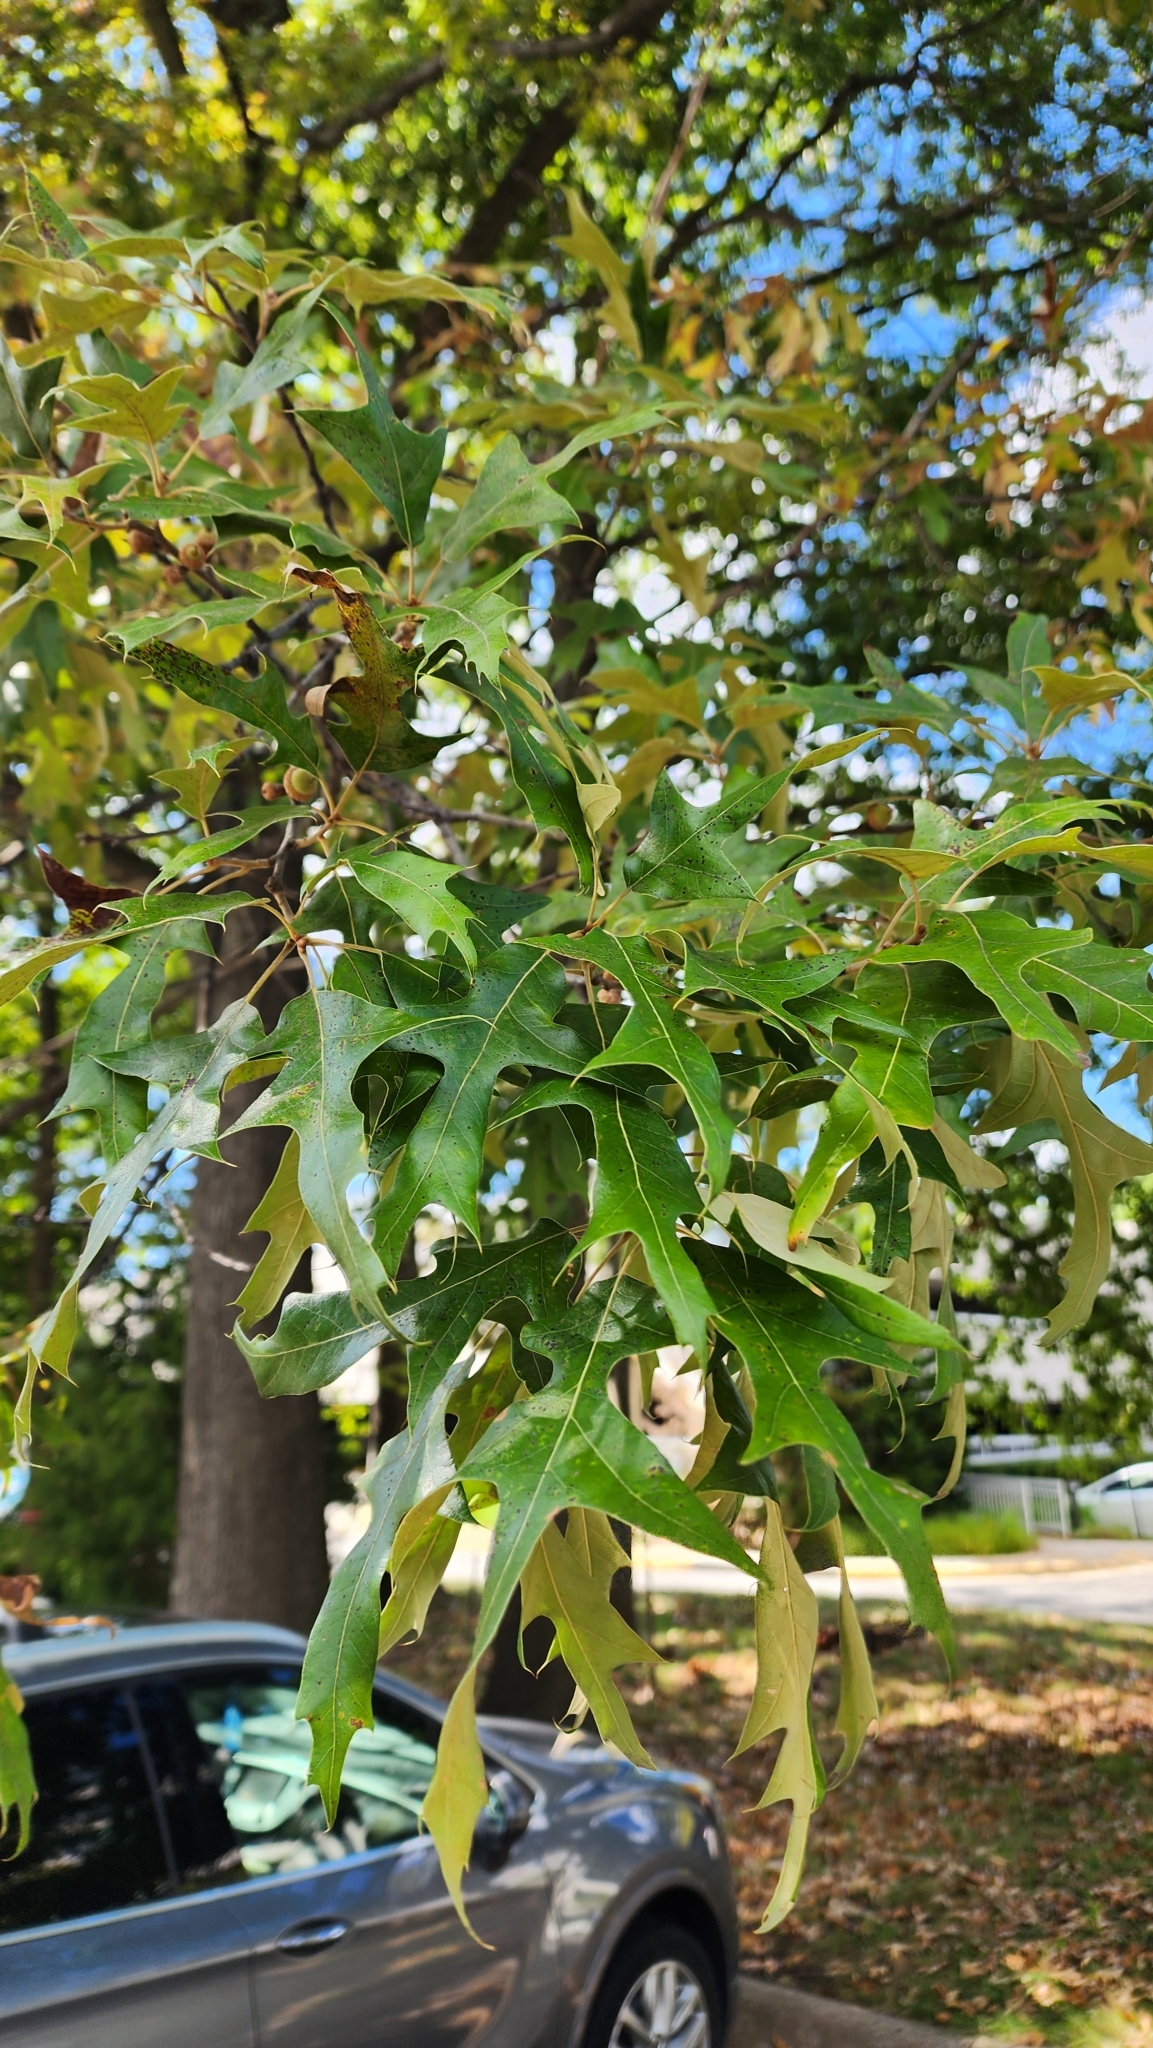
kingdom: Plantae
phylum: Tracheophyta
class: Magnoliopsida
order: Fagales
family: Fagaceae
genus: Quercus
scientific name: Quercus falcata
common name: Southern red oak
